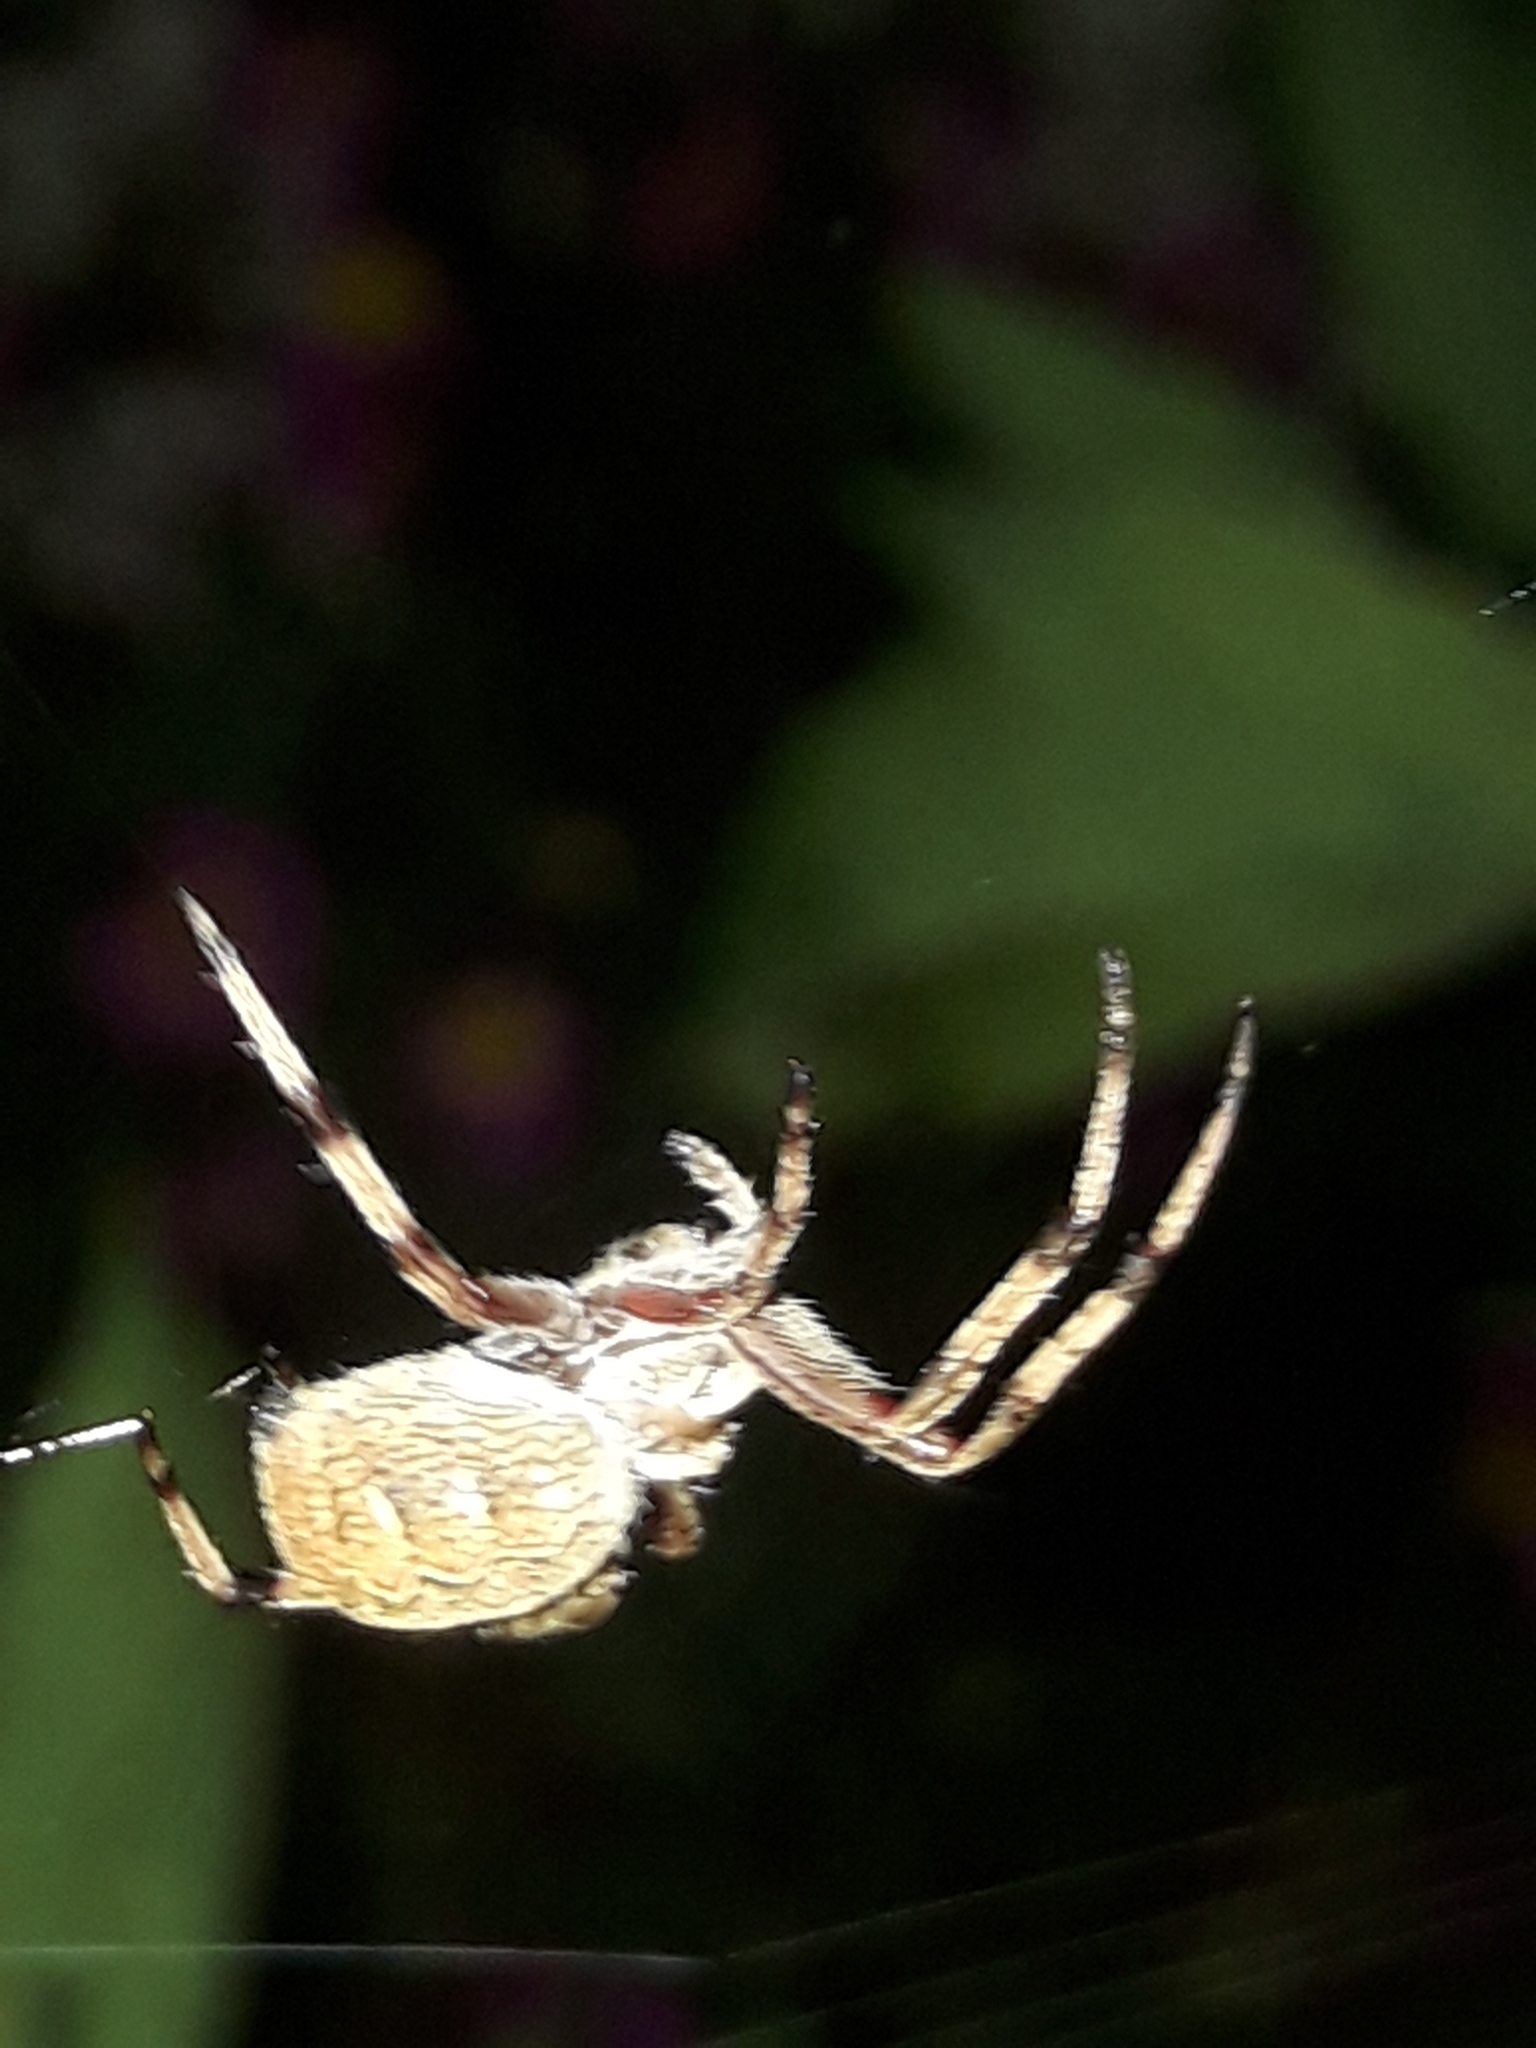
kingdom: Animalia
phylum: Arthropoda
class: Arachnida
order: Araneae
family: Araneidae
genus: Salsa
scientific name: Salsa fuliginata
